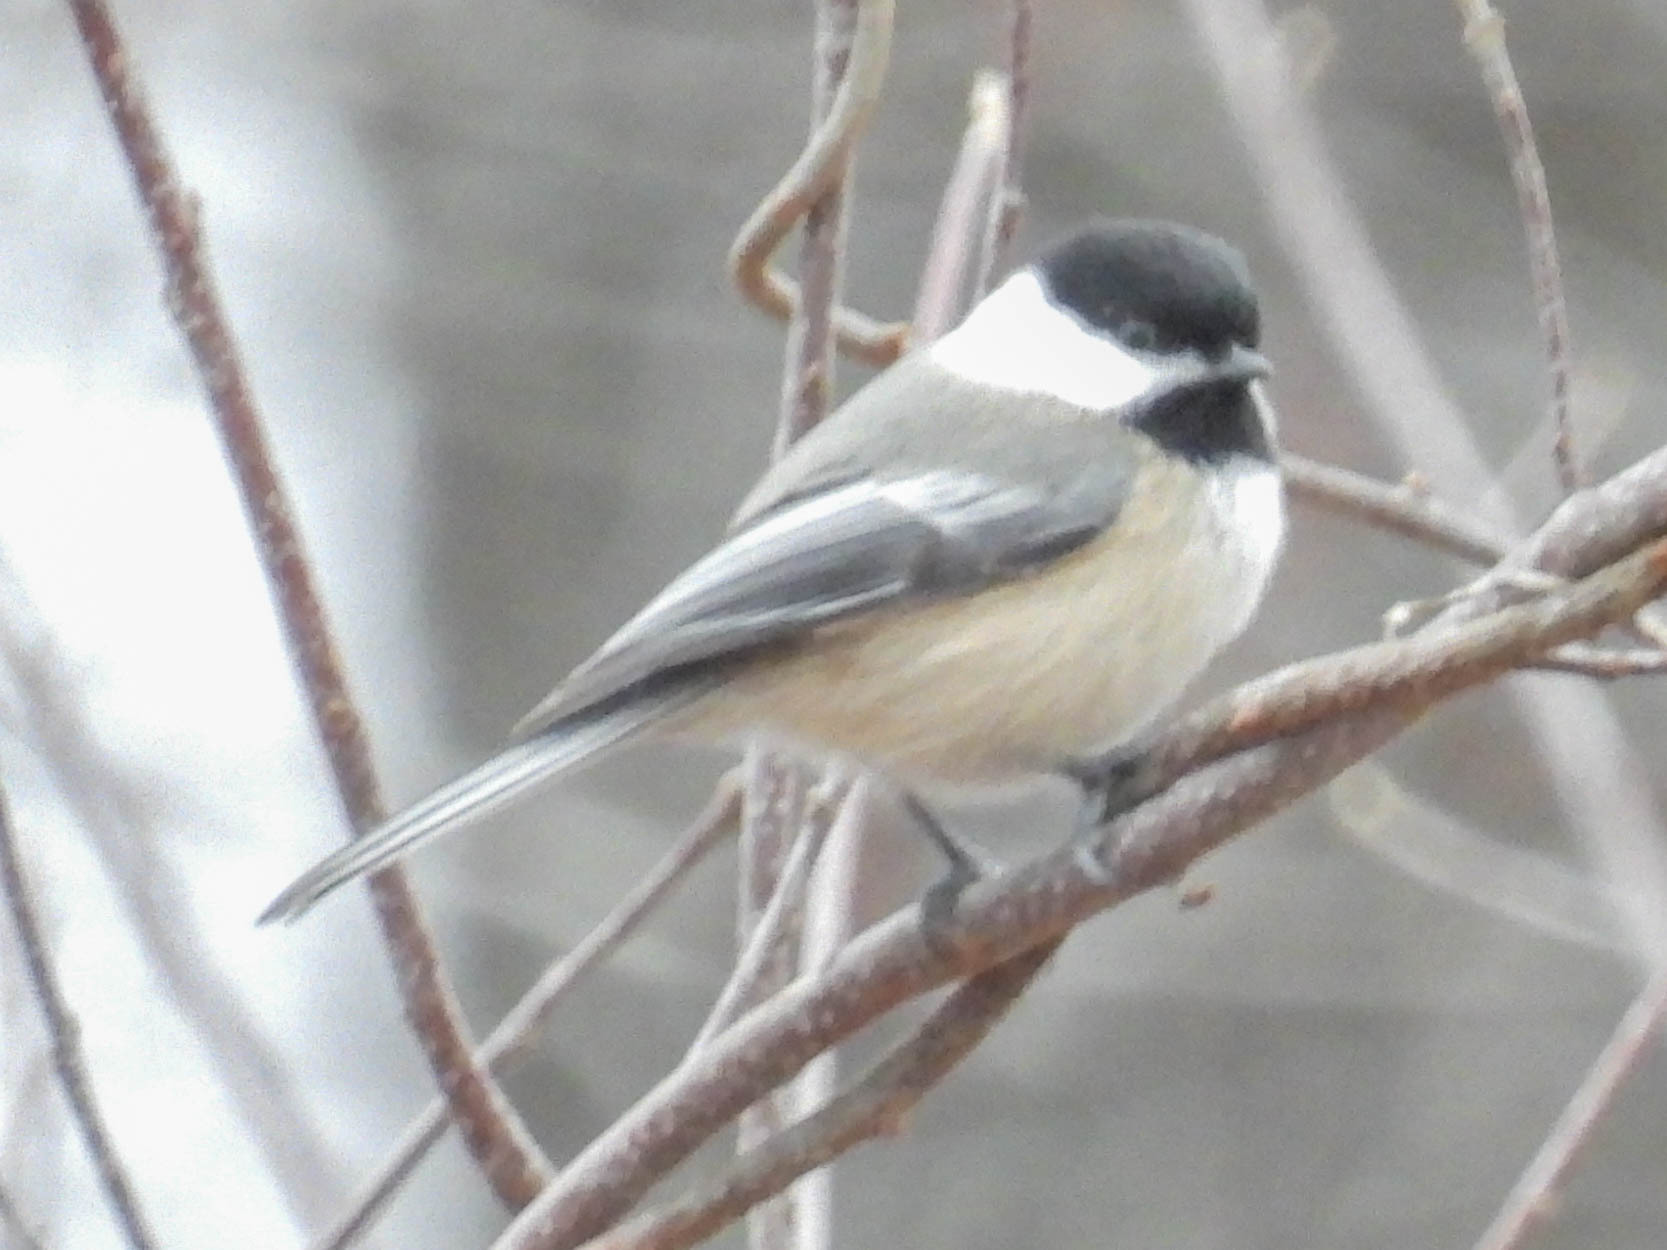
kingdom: Animalia
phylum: Chordata
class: Aves
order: Passeriformes
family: Paridae
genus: Poecile
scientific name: Poecile atricapillus
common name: Black-capped chickadee
